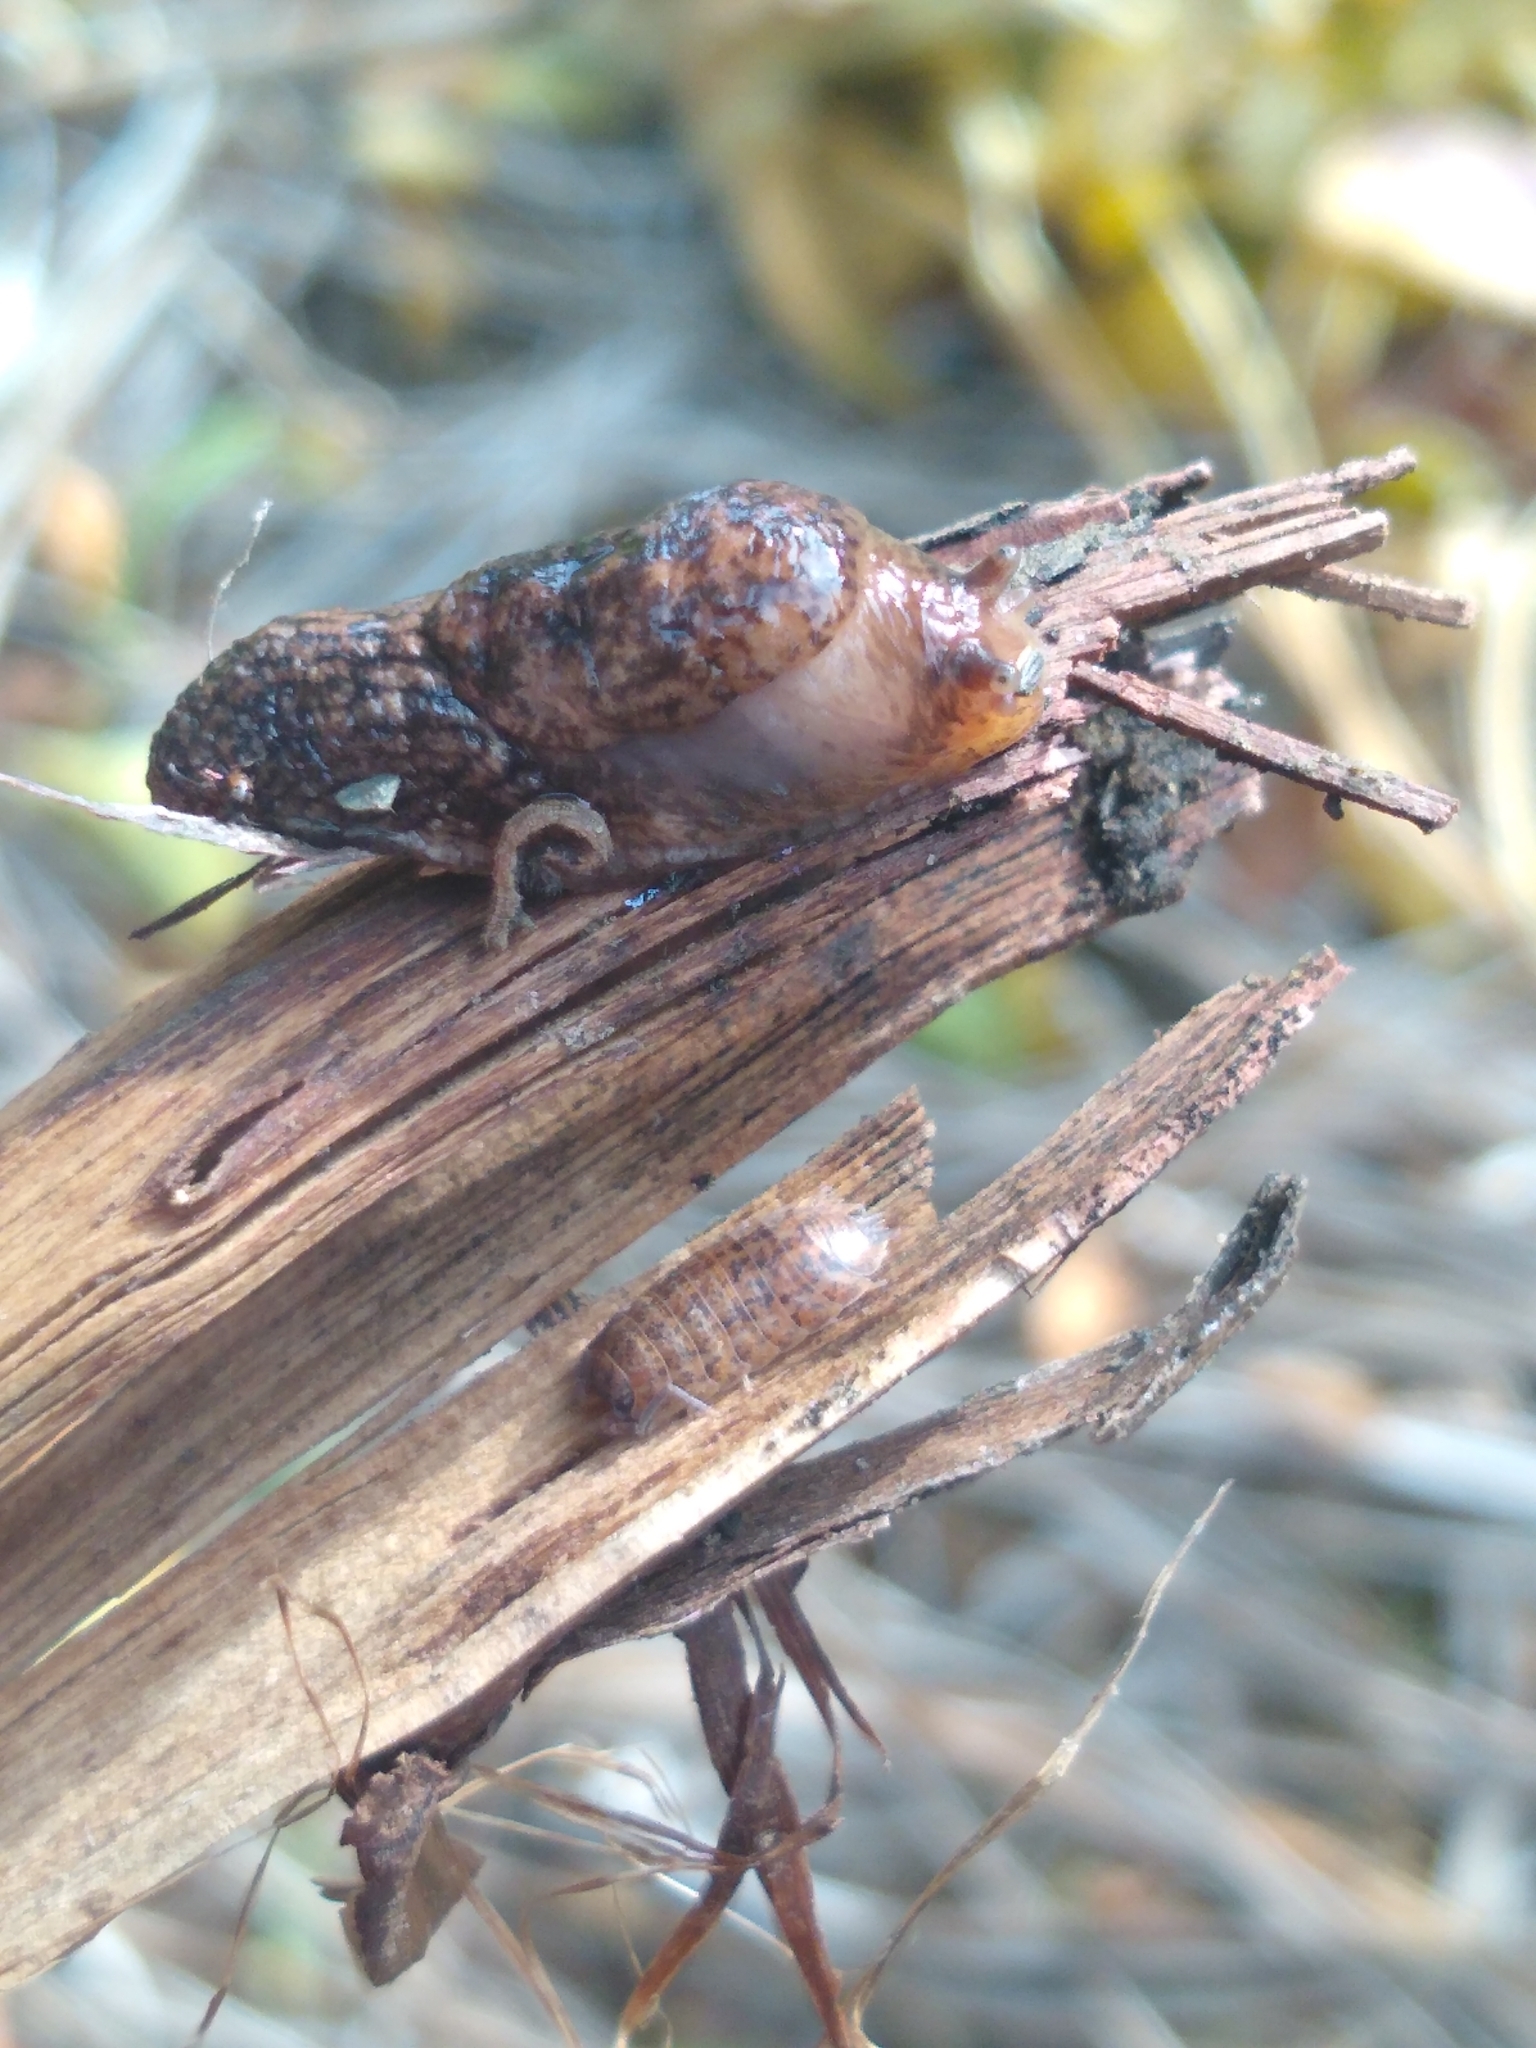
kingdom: Animalia
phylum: Mollusca
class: Gastropoda
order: Stylommatophora
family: Agriolimacidae
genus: Deroceras
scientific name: Deroceras reticulatum
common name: Gray field slug
